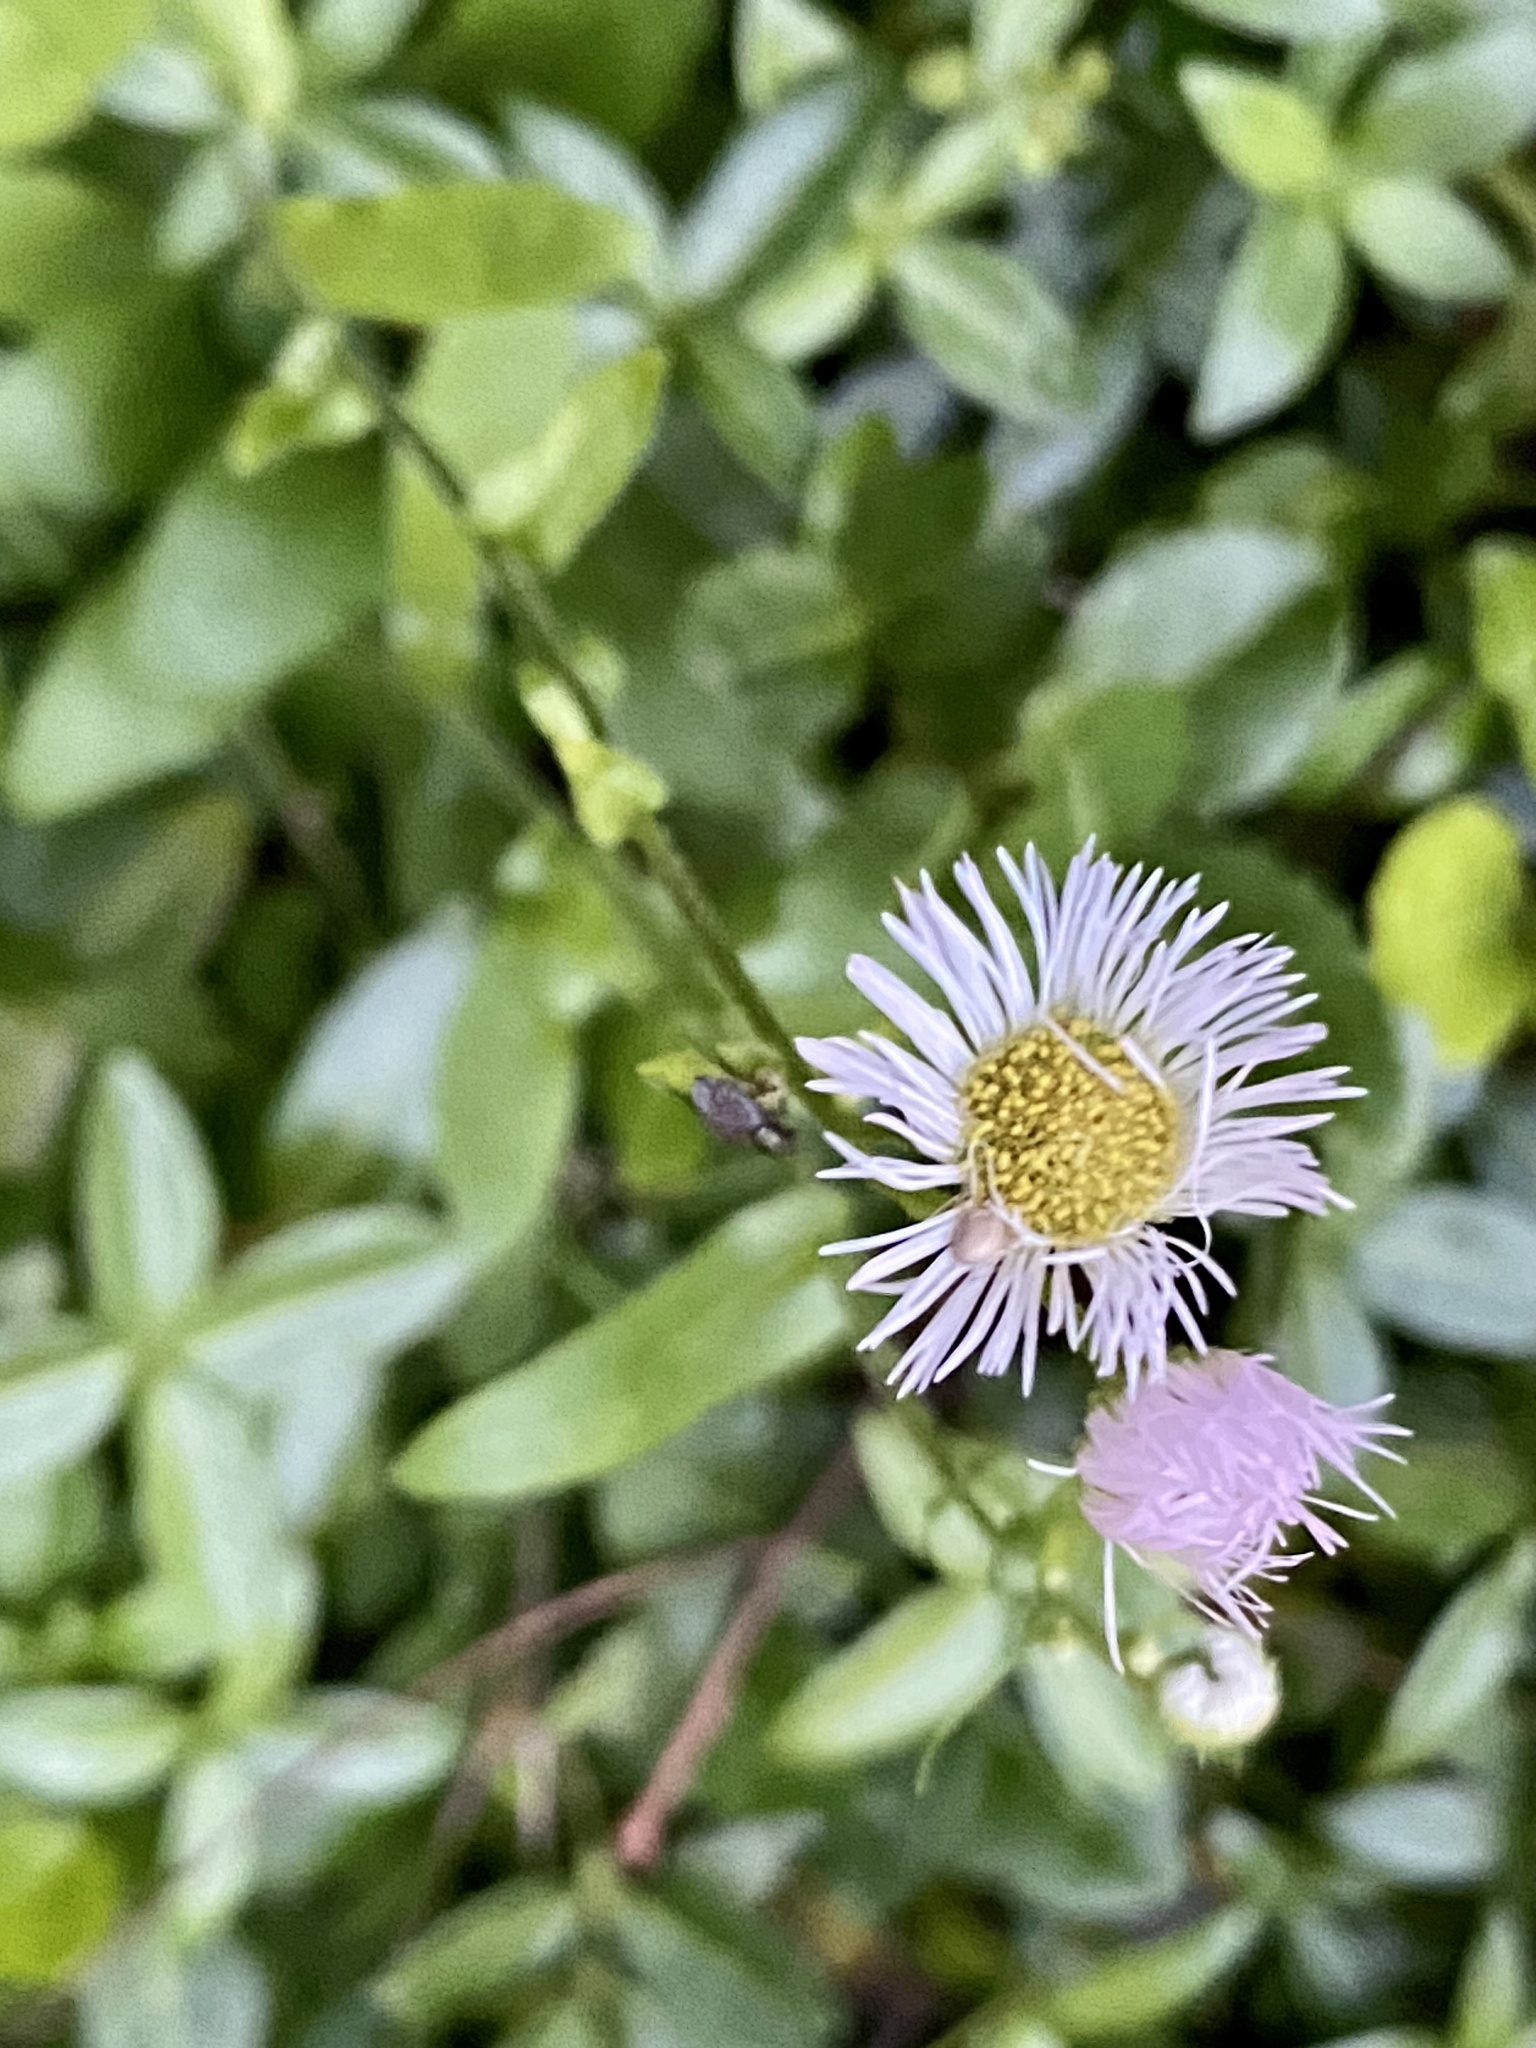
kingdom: Plantae
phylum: Tracheophyta
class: Magnoliopsida
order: Asterales
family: Asteraceae
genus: Erigeron
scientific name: Erigeron philadelphicus
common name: Robin's-plantain
